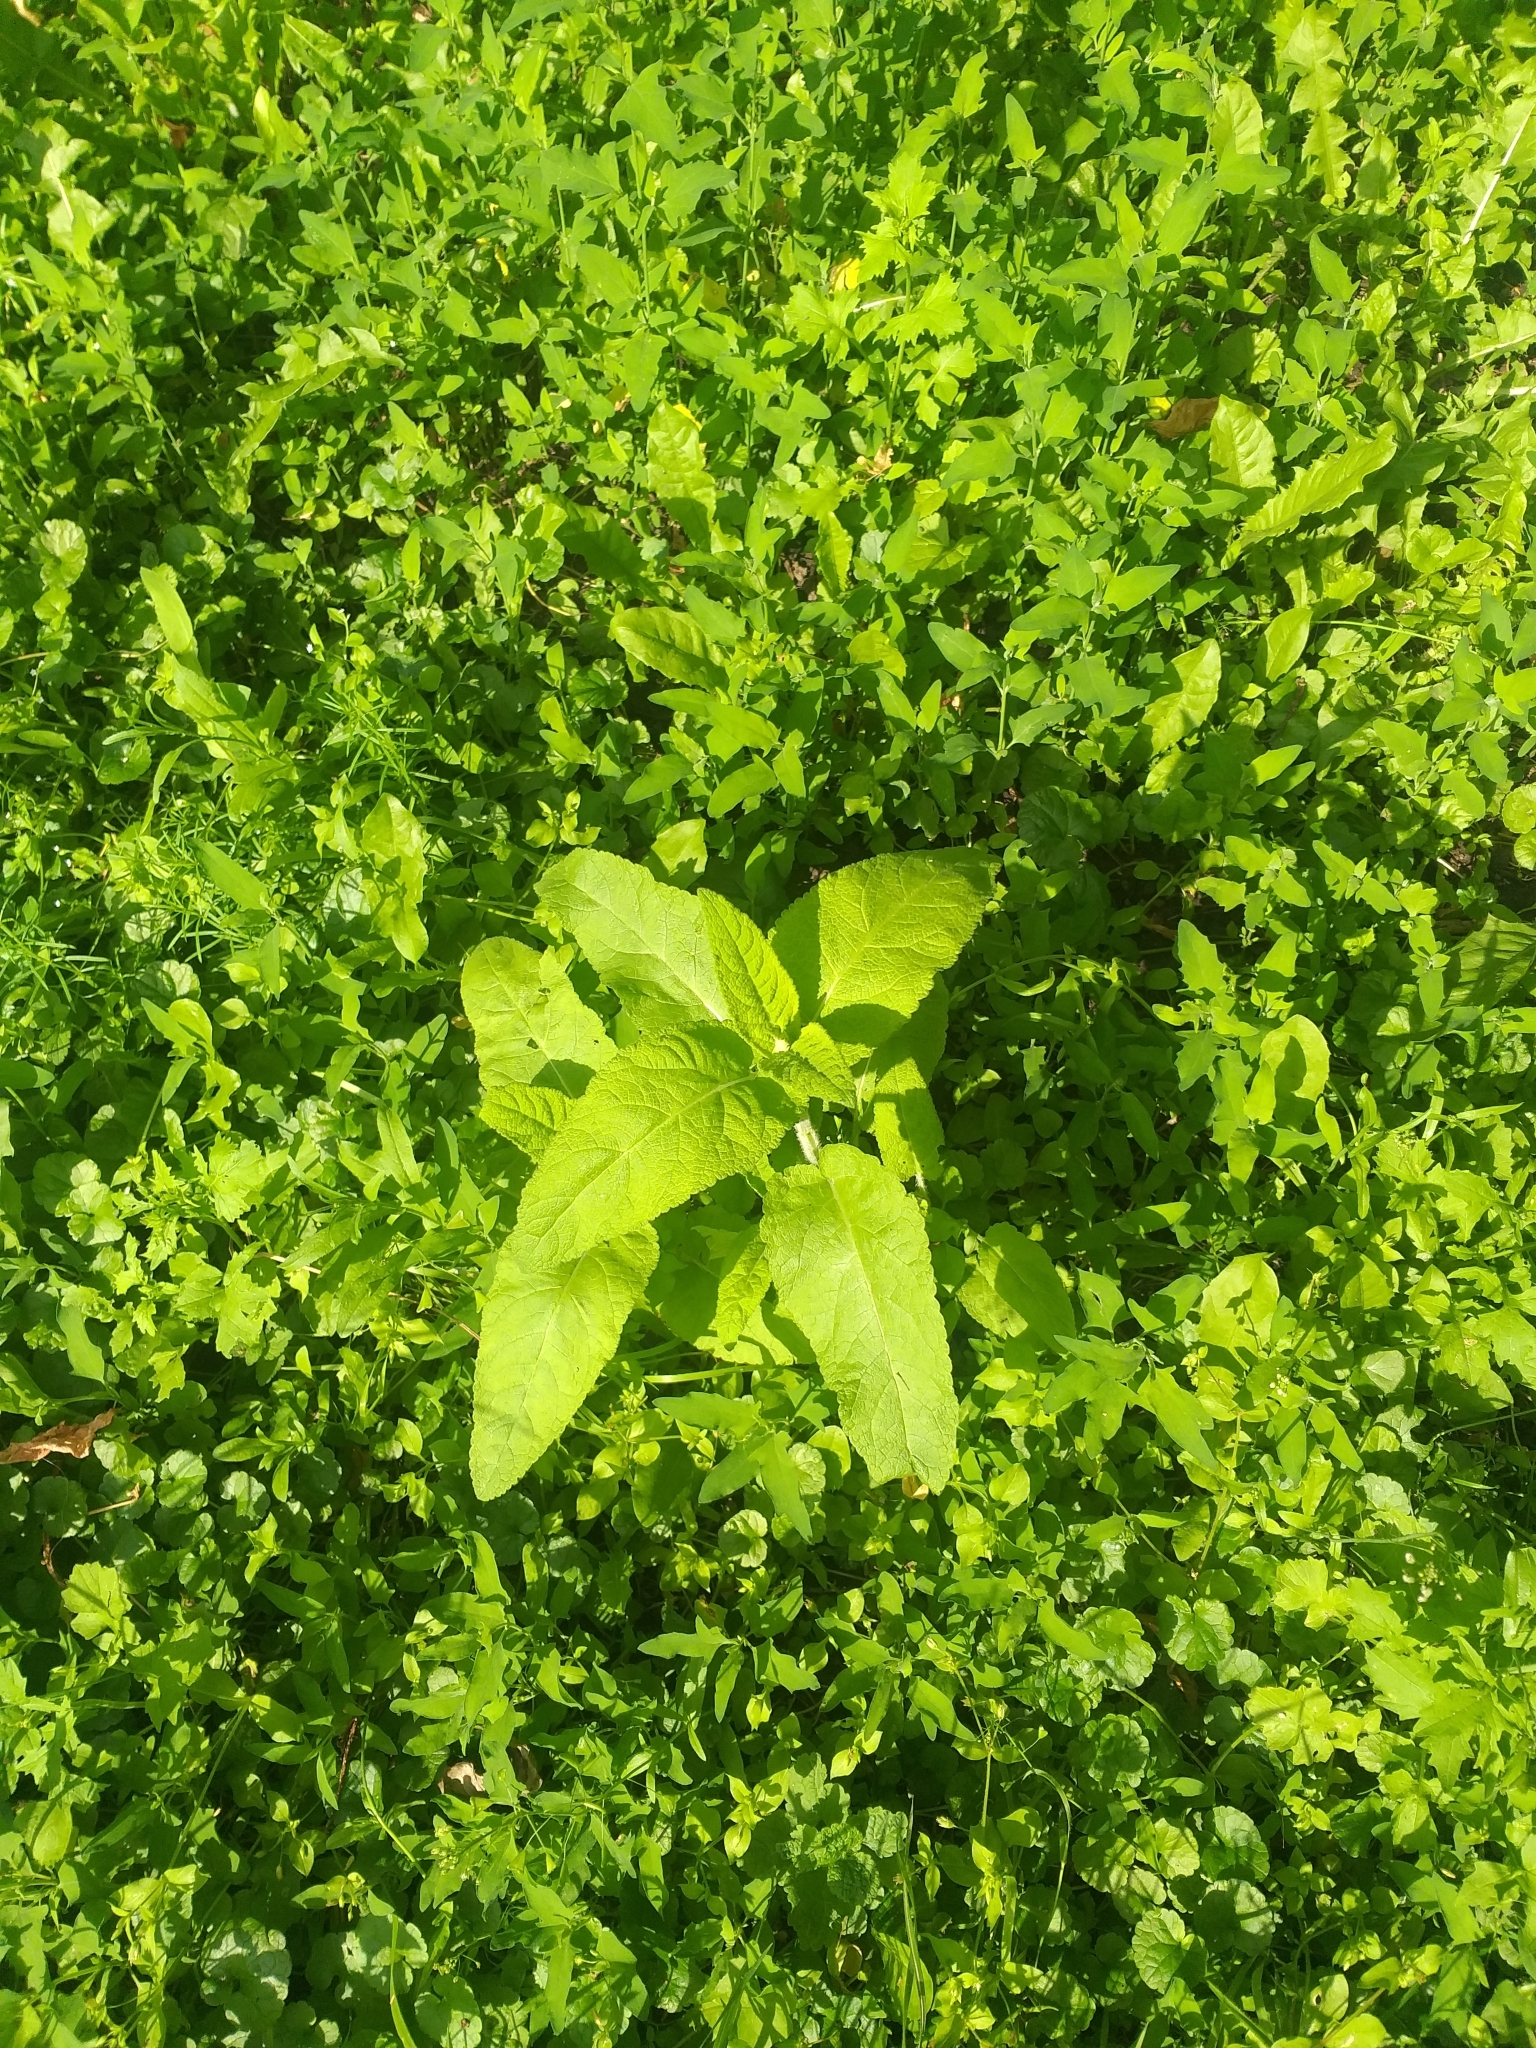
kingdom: Plantae
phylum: Tracheophyta
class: Magnoliopsida
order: Lamiales
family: Lamiaceae
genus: Salvia
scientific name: Salvia nemorosa
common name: Balkan clary
